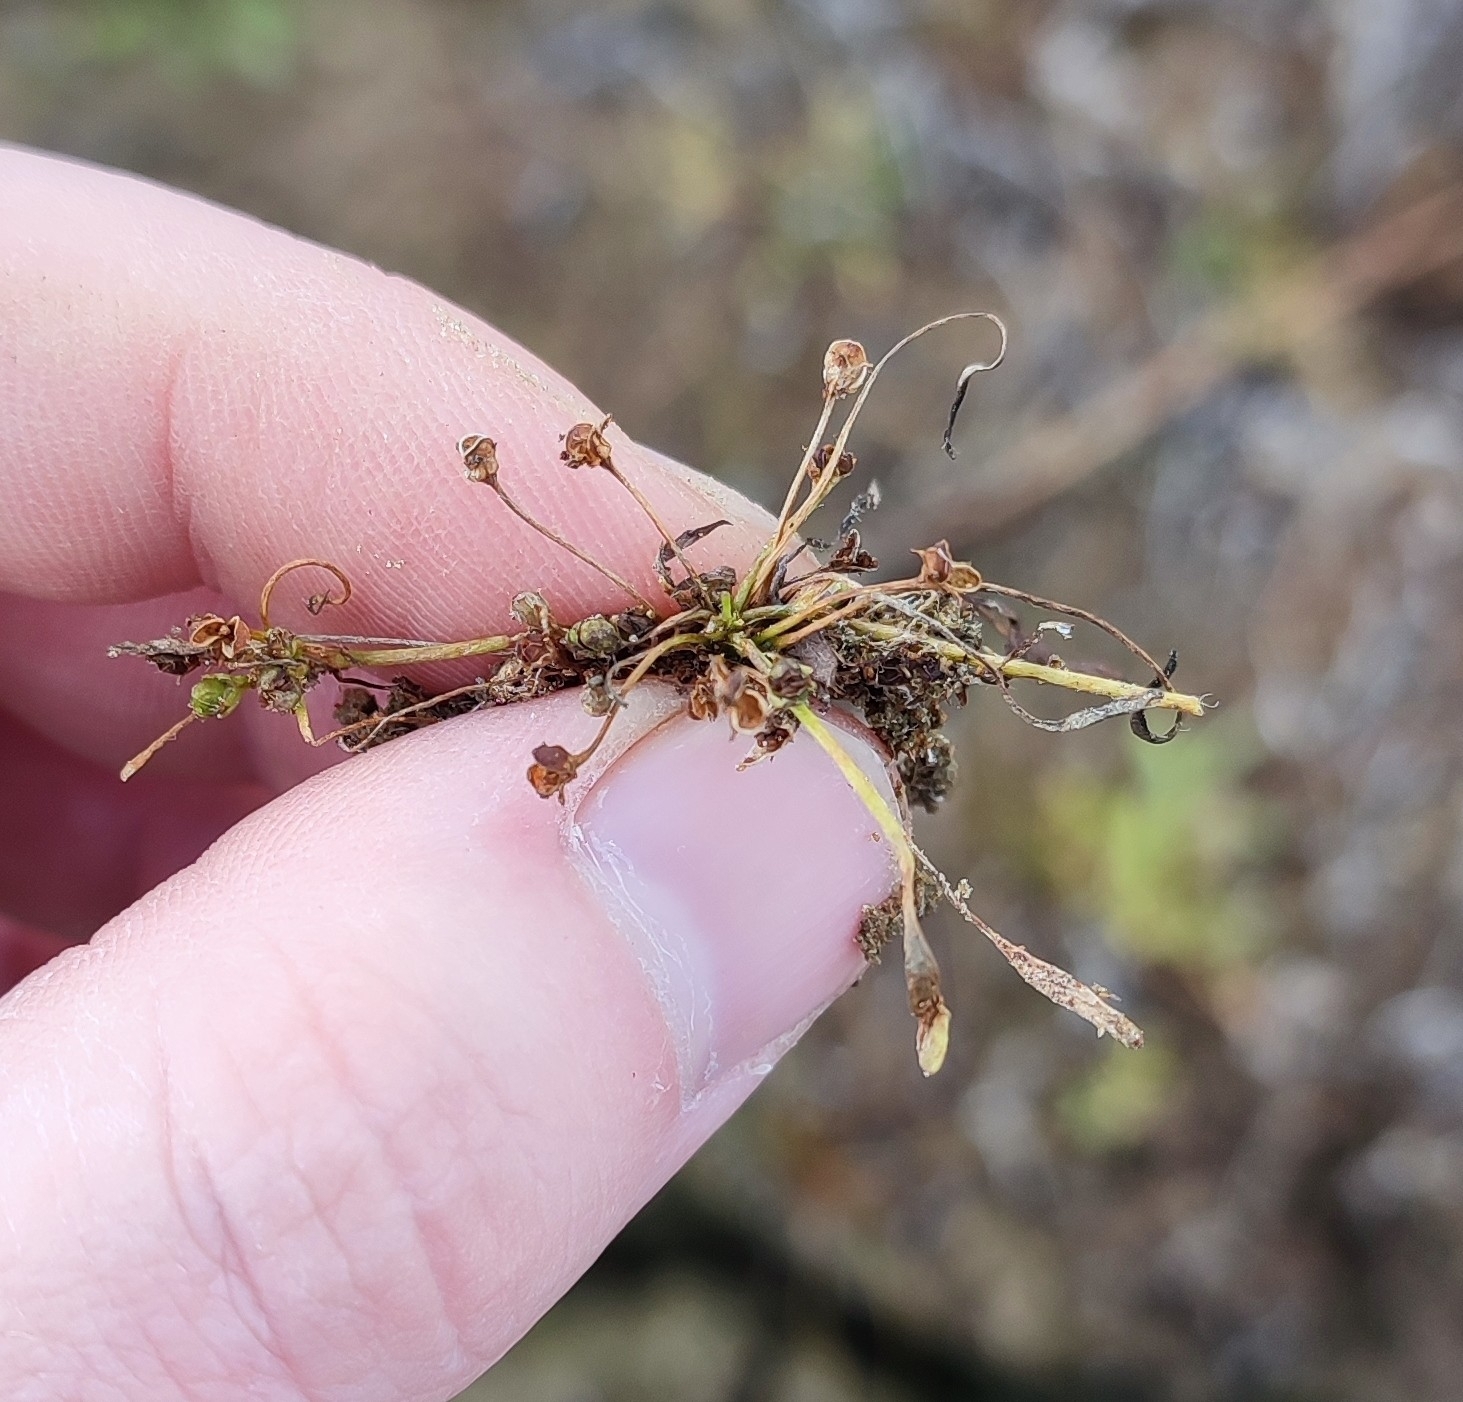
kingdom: Plantae
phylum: Tracheophyta
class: Magnoliopsida
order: Lamiales
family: Scrophulariaceae
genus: Limosella
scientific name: Limosella aquatica
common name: Mudwort
